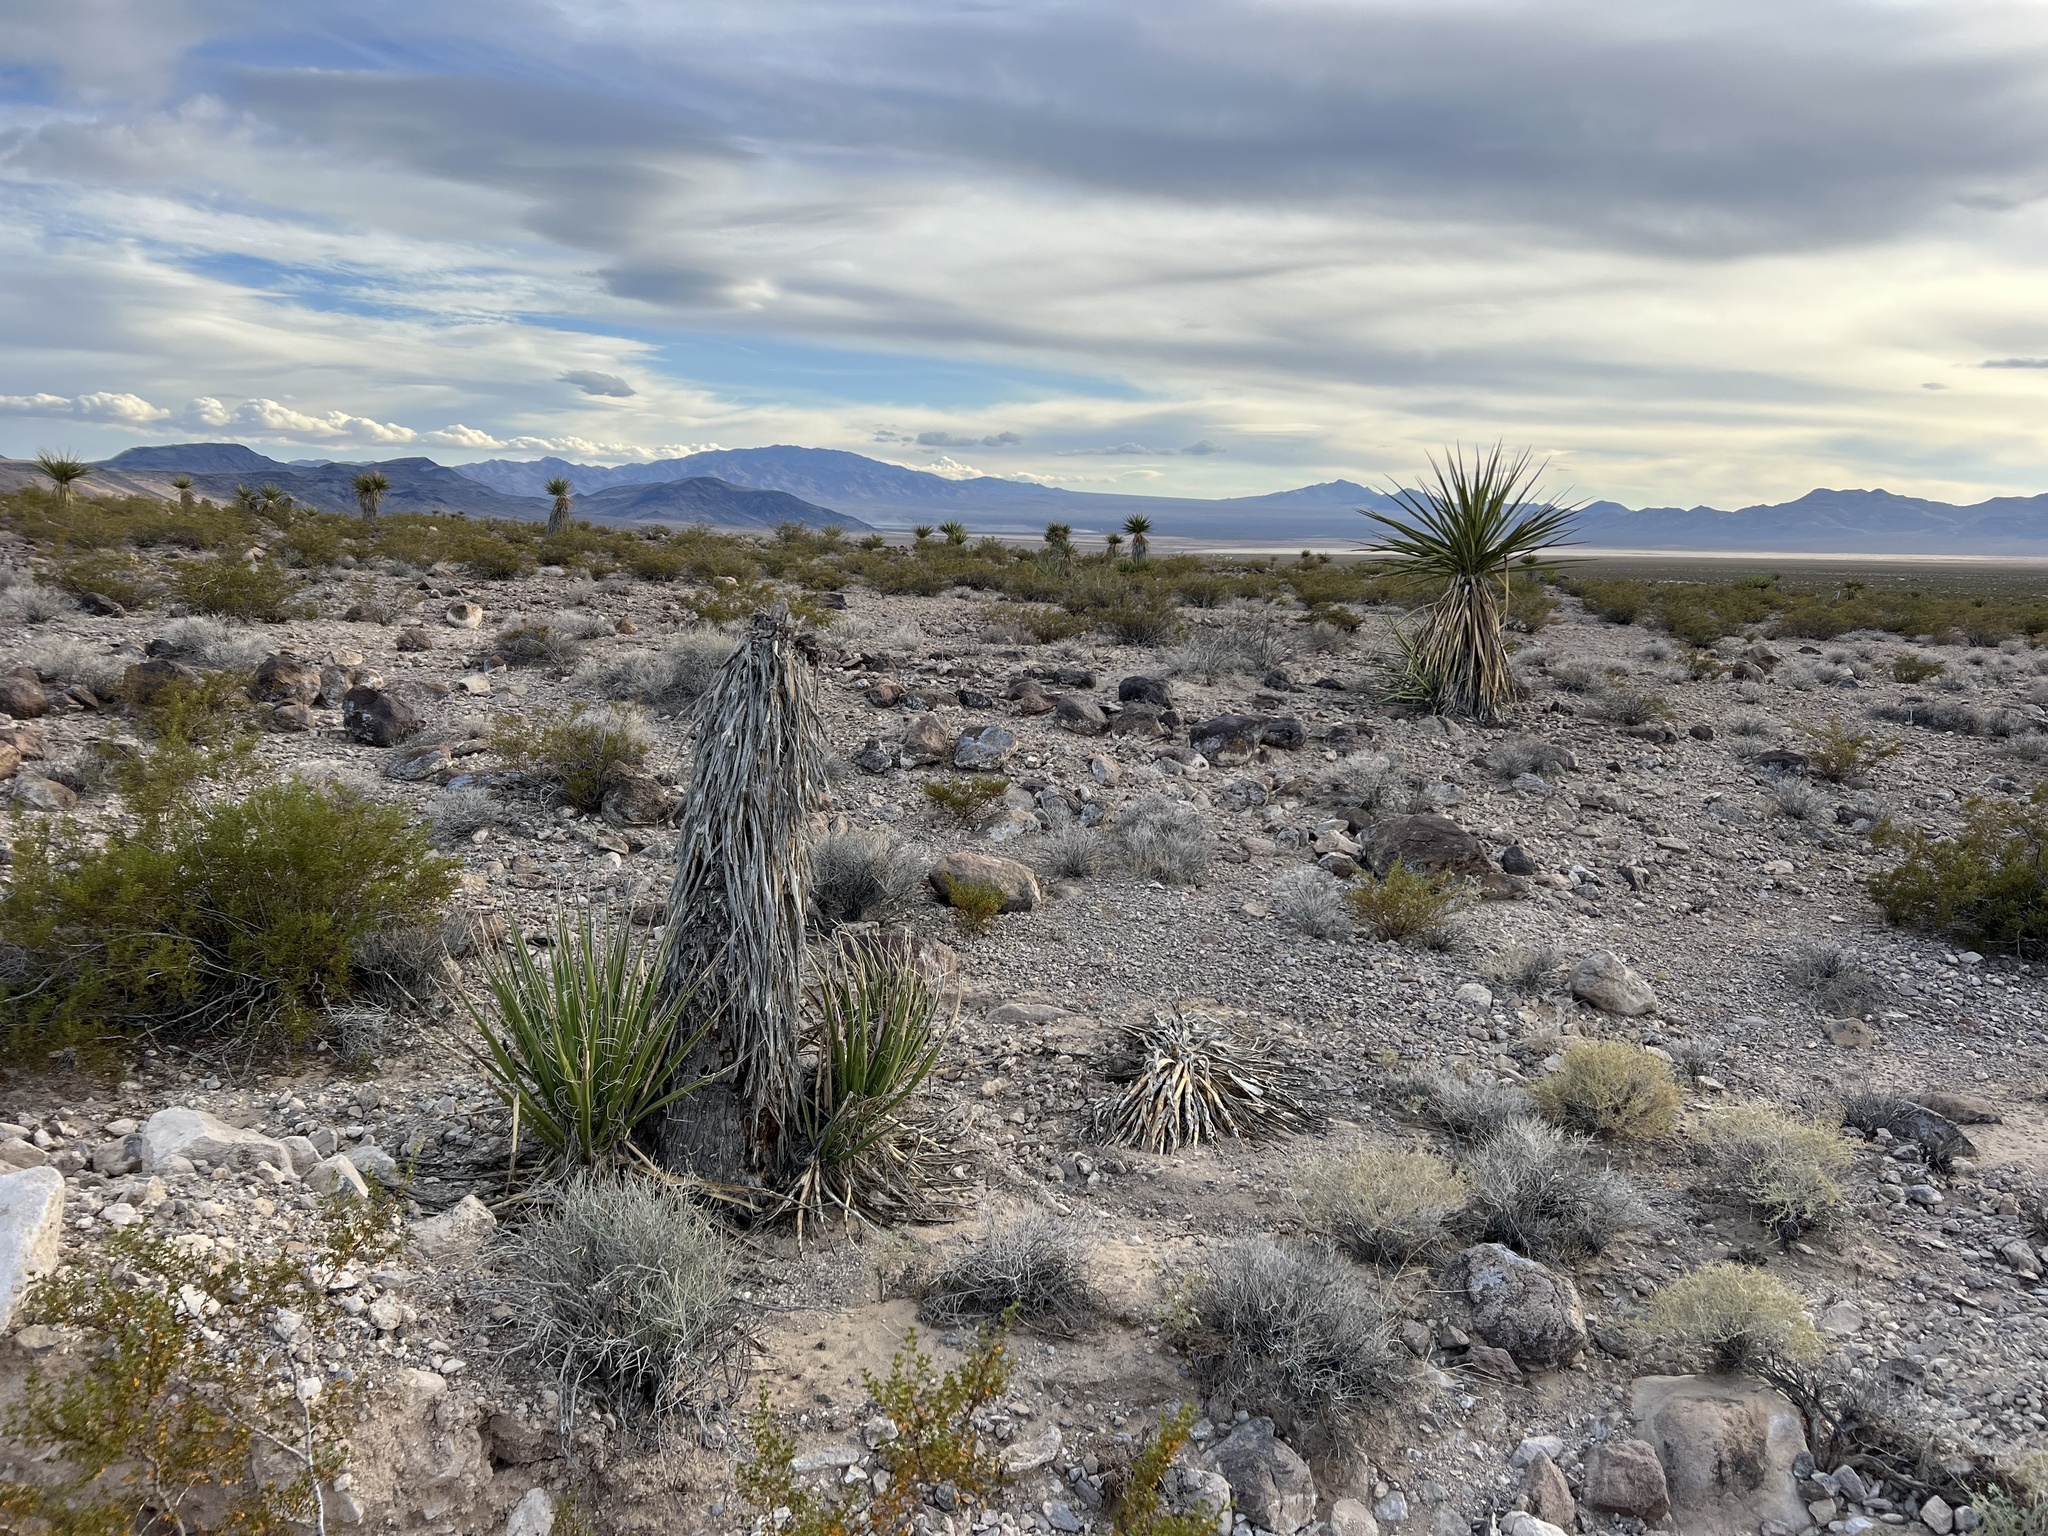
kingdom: Plantae
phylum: Tracheophyta
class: Liliopsida
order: Asparagales
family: Asparagaceae
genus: Yucca
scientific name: Yucca schidigera
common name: Mojave yucca
